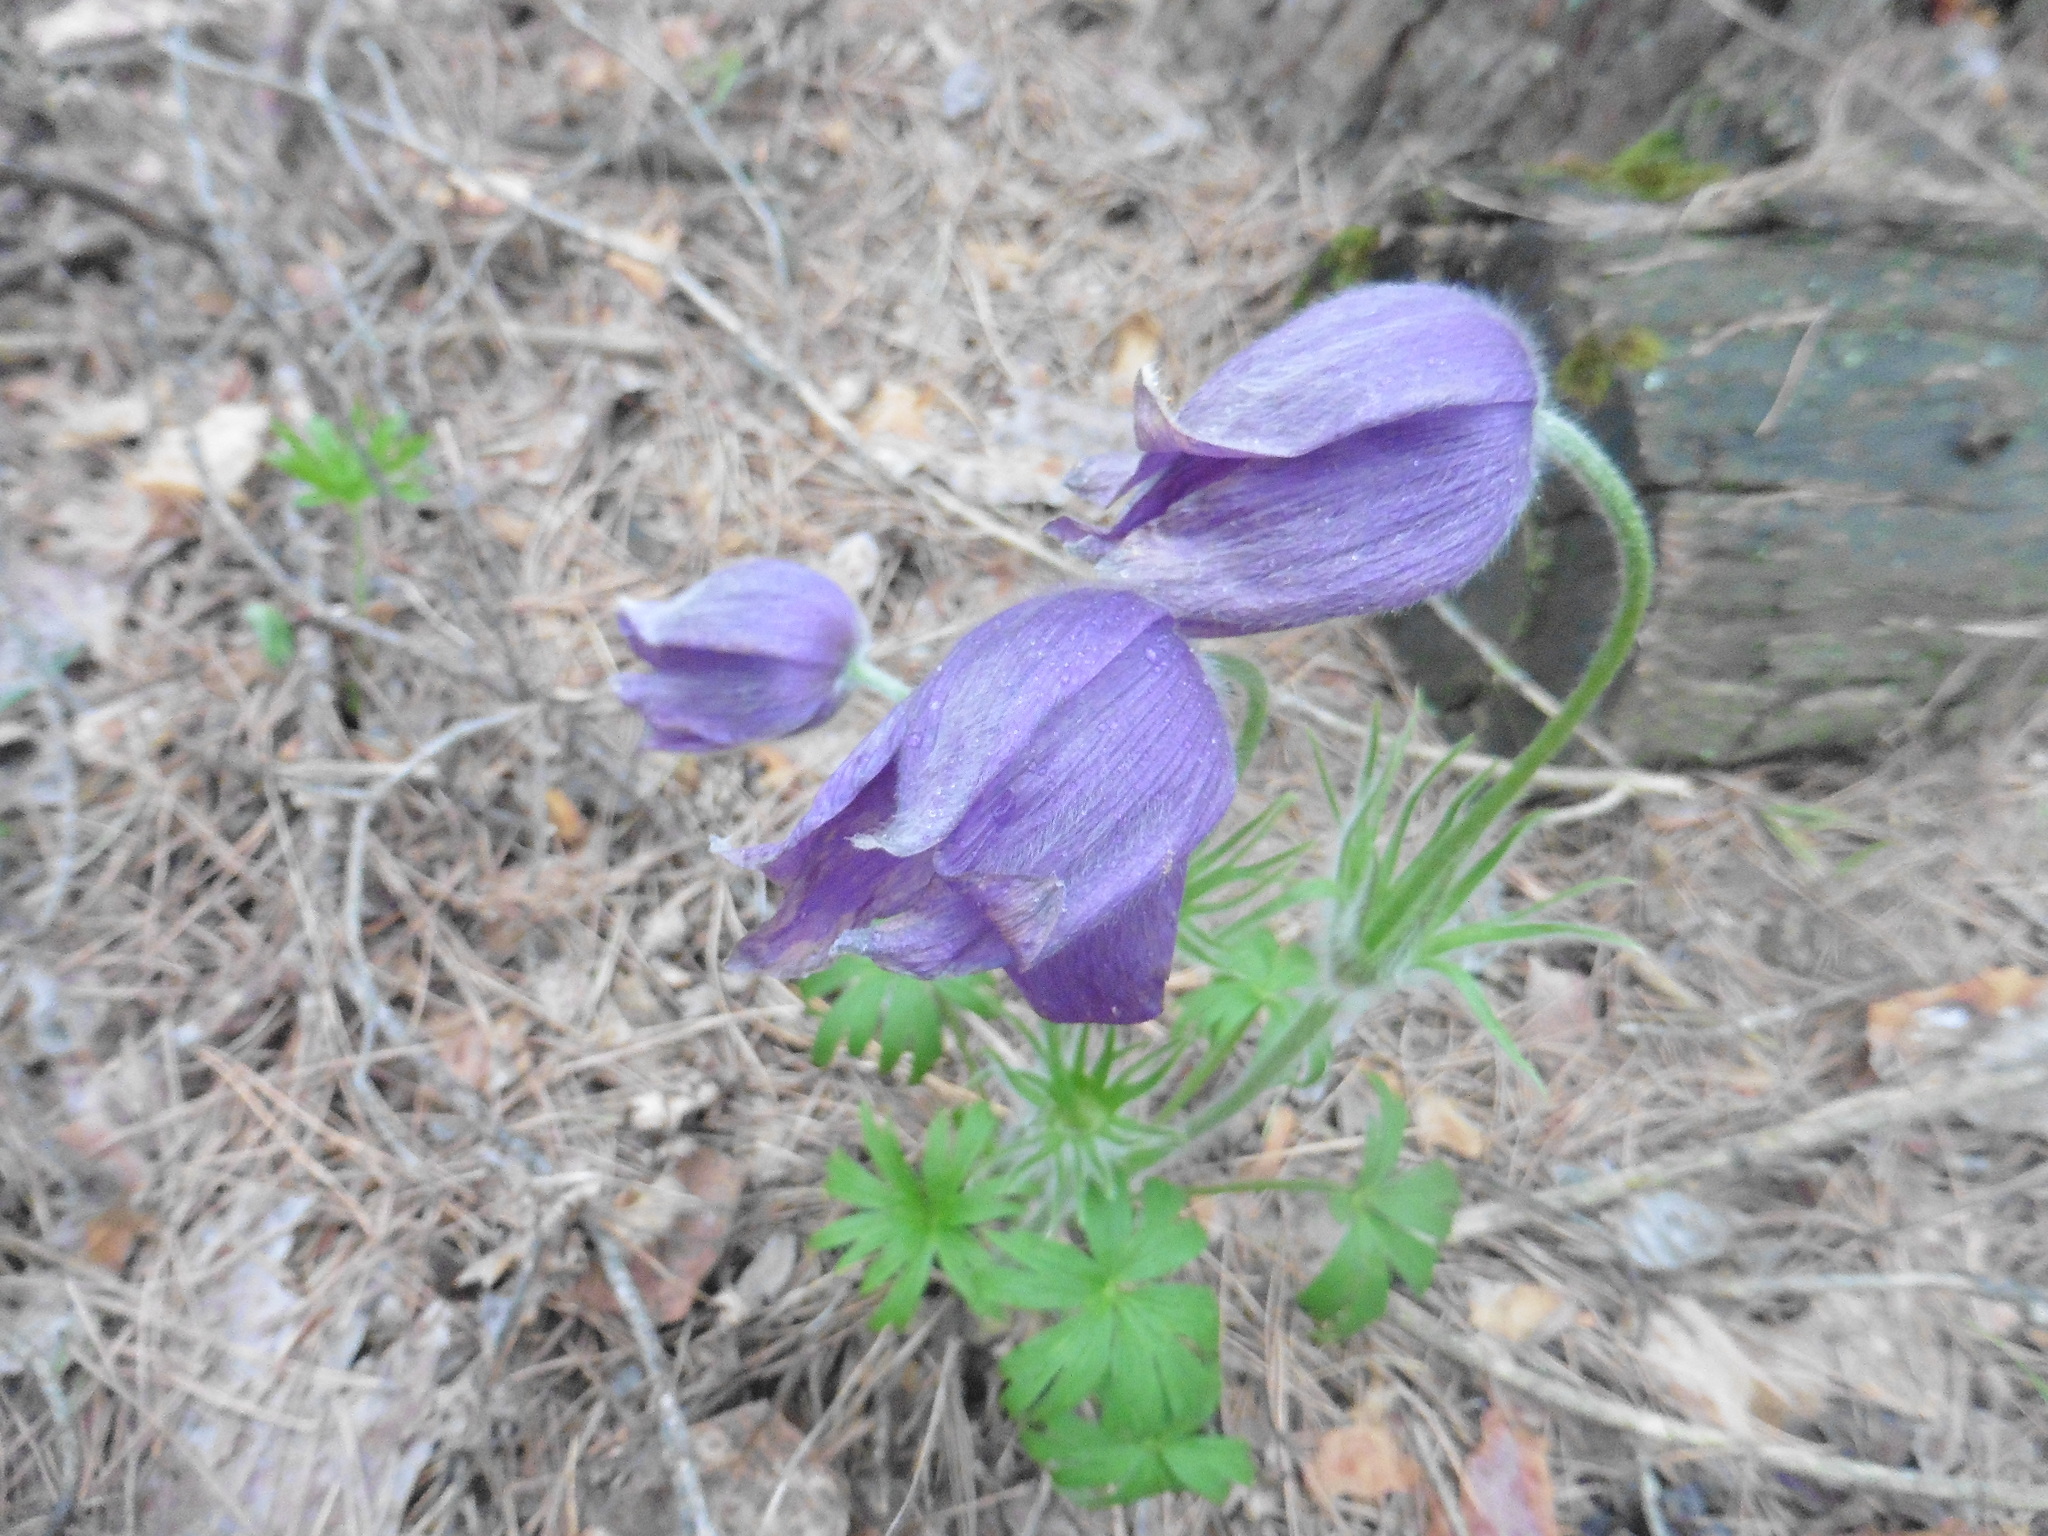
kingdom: Plantae
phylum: Tracheophyta
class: Magnoliopsida
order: Ranunculales
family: Ranunculaceae
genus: Pulsatilla
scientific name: Pulsatilla patens
